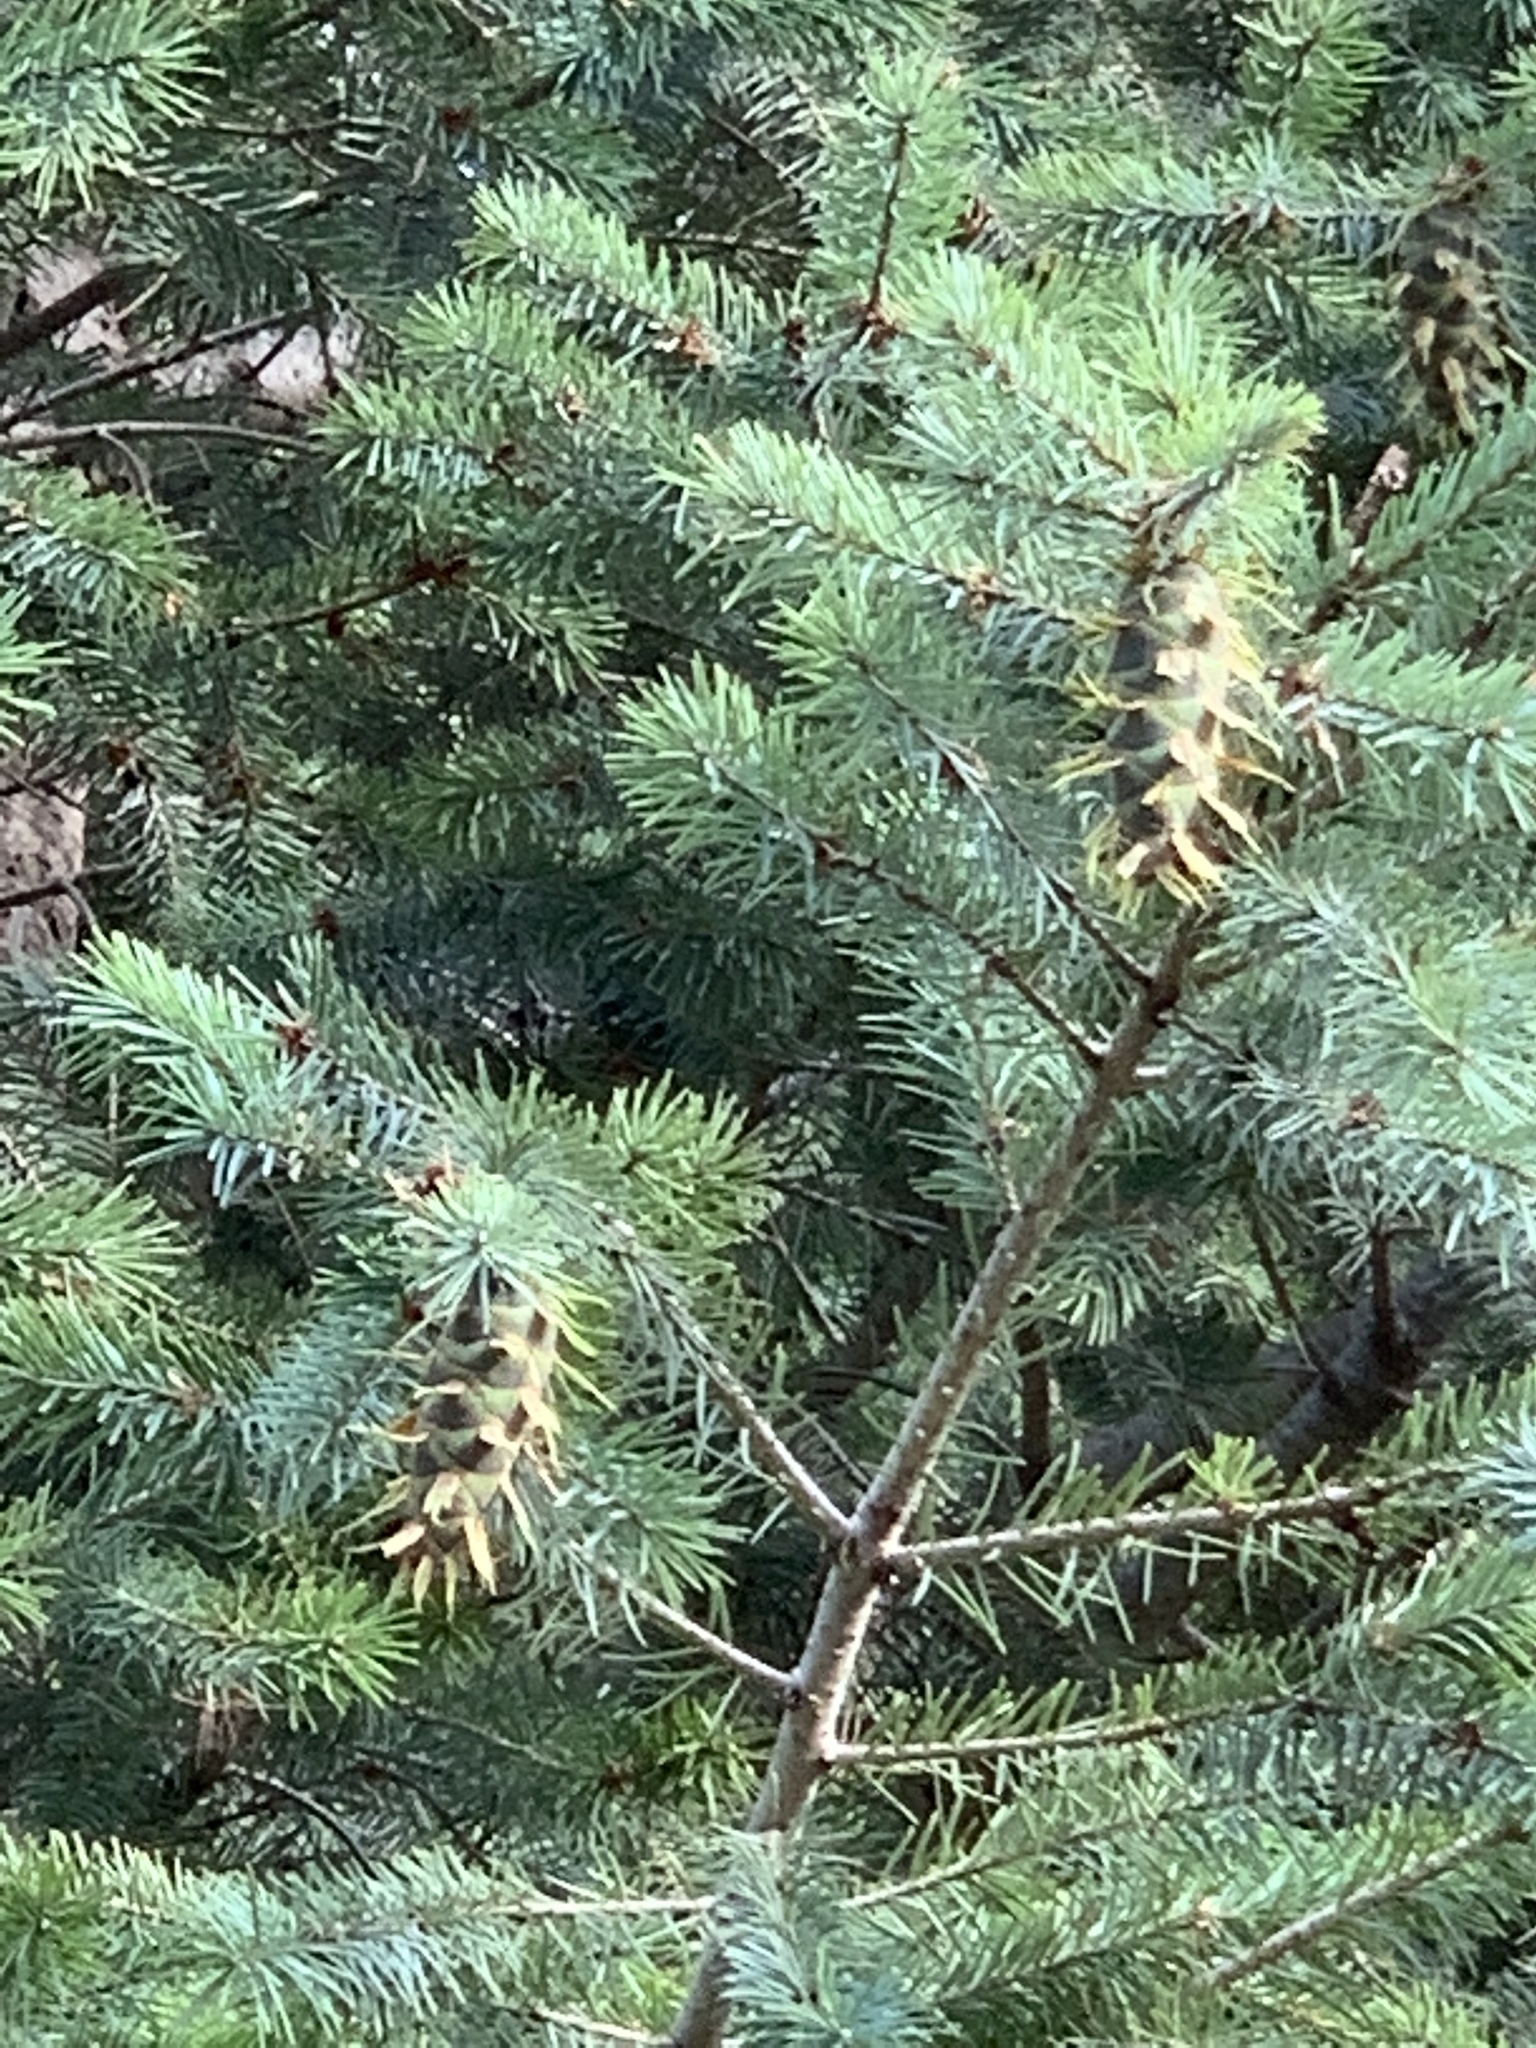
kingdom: Plantae
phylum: Tracheophyta
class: Pinopsida
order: Pinales
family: Pinaceae
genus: Pseudotsuga
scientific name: Pseudotsuga menziesii
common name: Douglas fir
